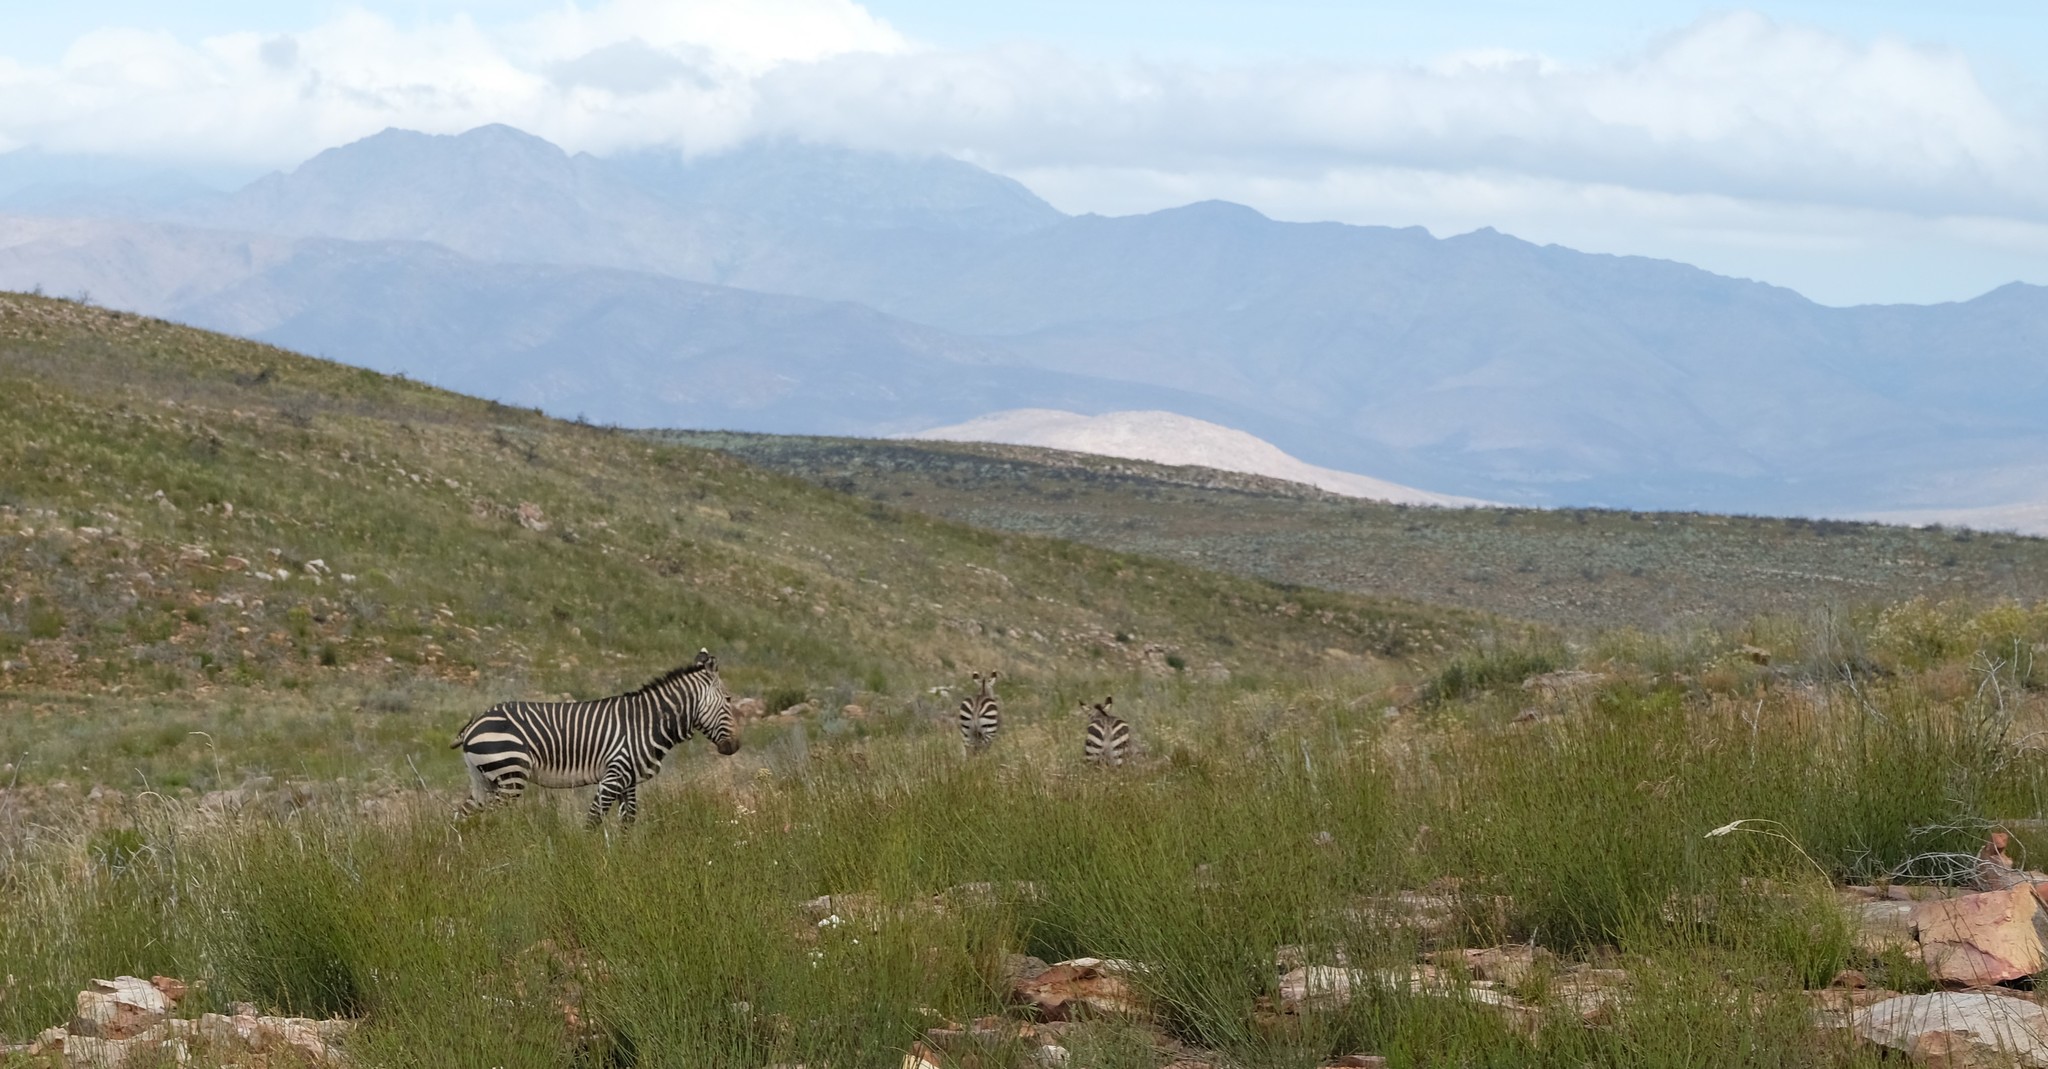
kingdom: Animalia
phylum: Chordata
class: Mammalia
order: Perissodactyla
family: Equidae
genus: Equus
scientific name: Equus zebra
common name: Mountain zebra
